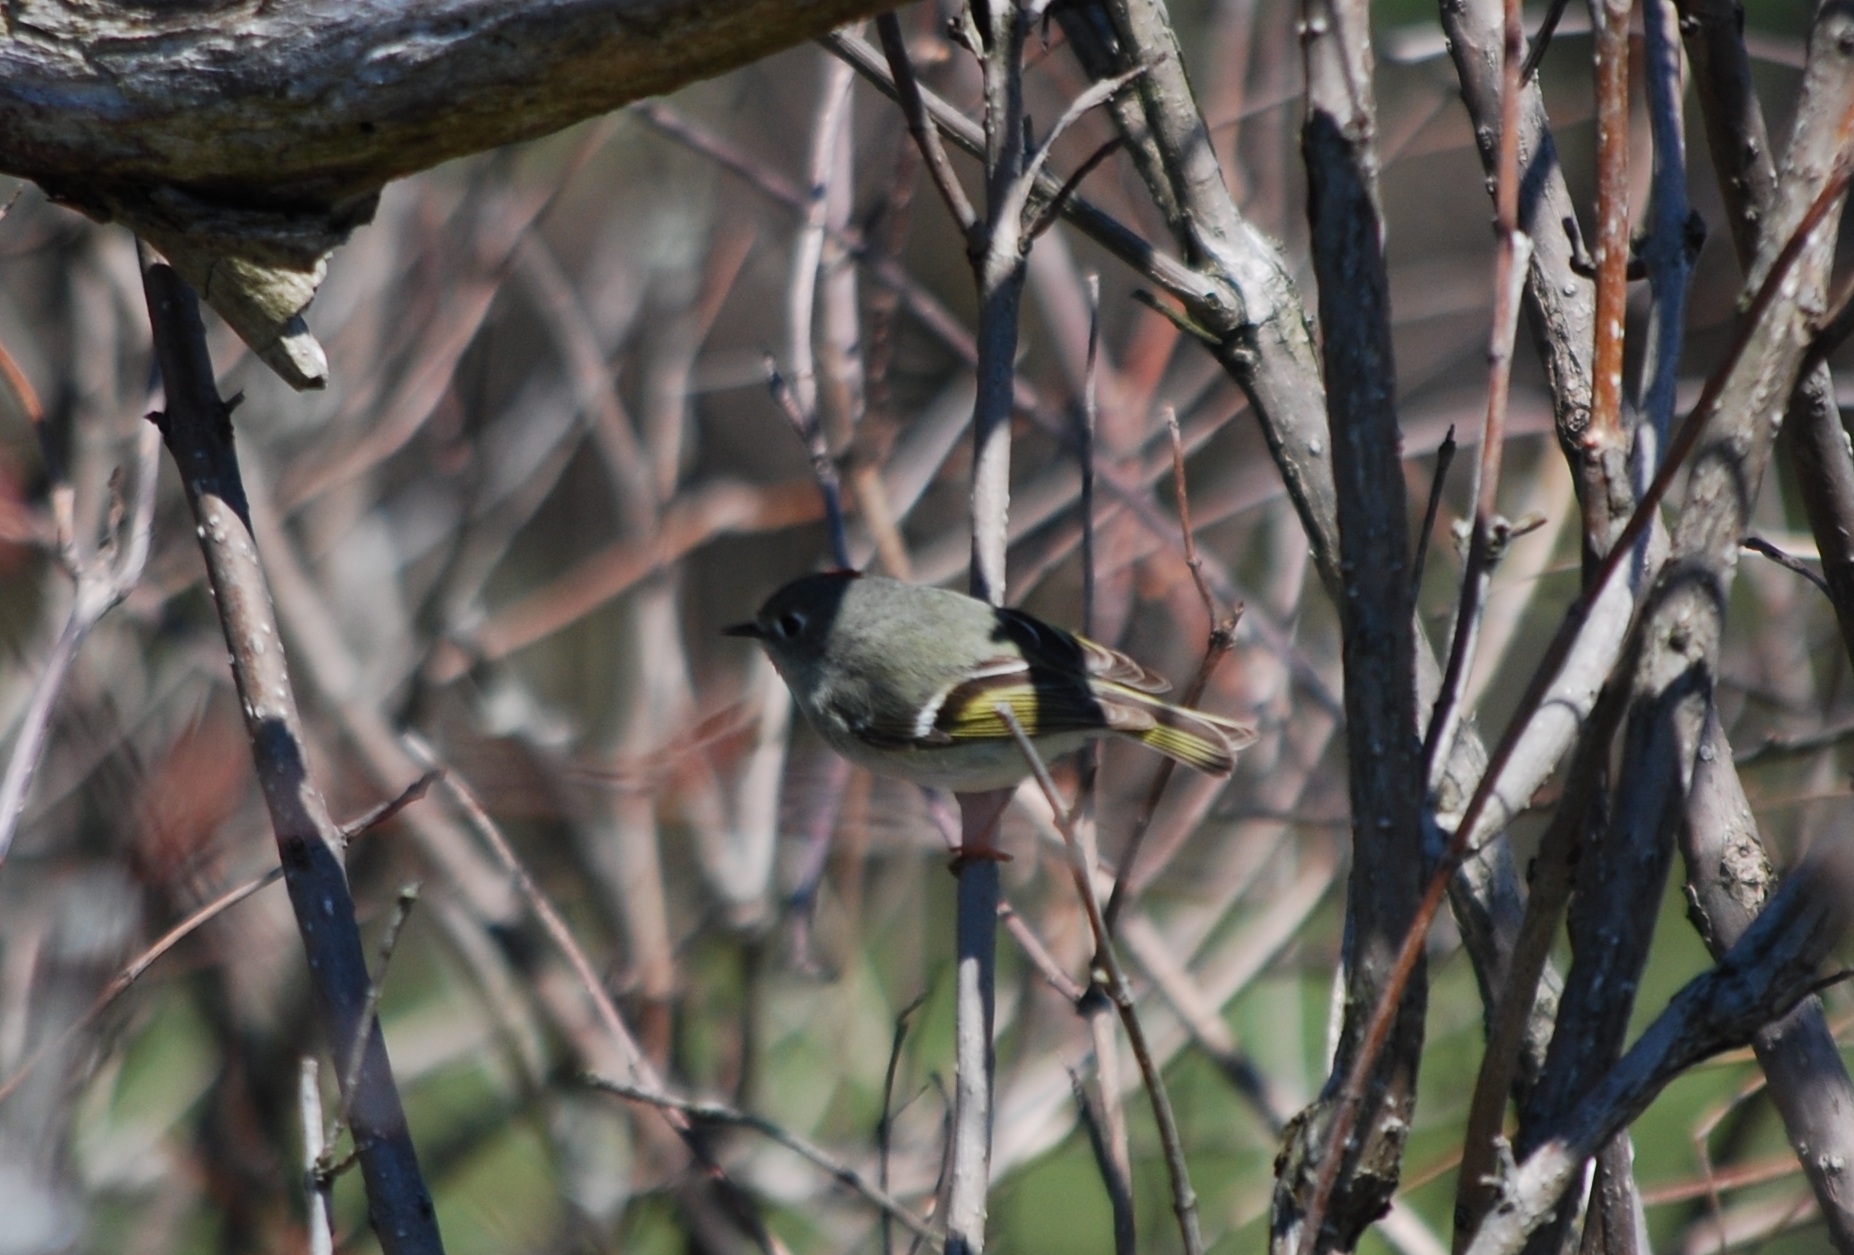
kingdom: Animalia
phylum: Chordata
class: Aves
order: Passeriformes
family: Regulidae
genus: Regulus
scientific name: Regulus calendula
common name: Ruby-crowned kinglet
